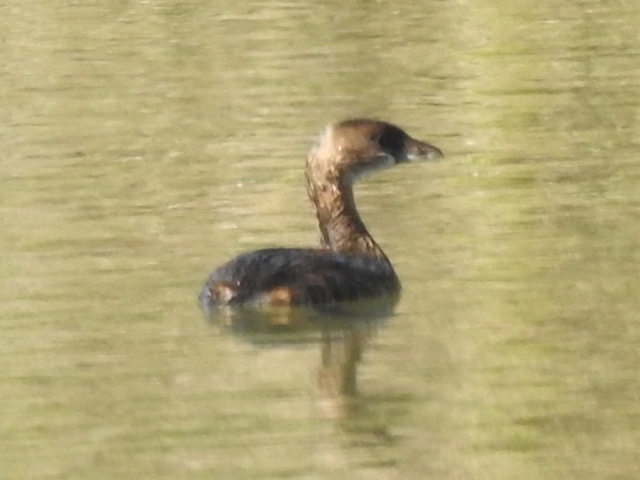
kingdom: Animalia
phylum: Chordata
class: Aves
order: Podicipediformes
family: Podicipedidae
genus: Podilymbus
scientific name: Podilymbus podiceps
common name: Pied-billed grebe
